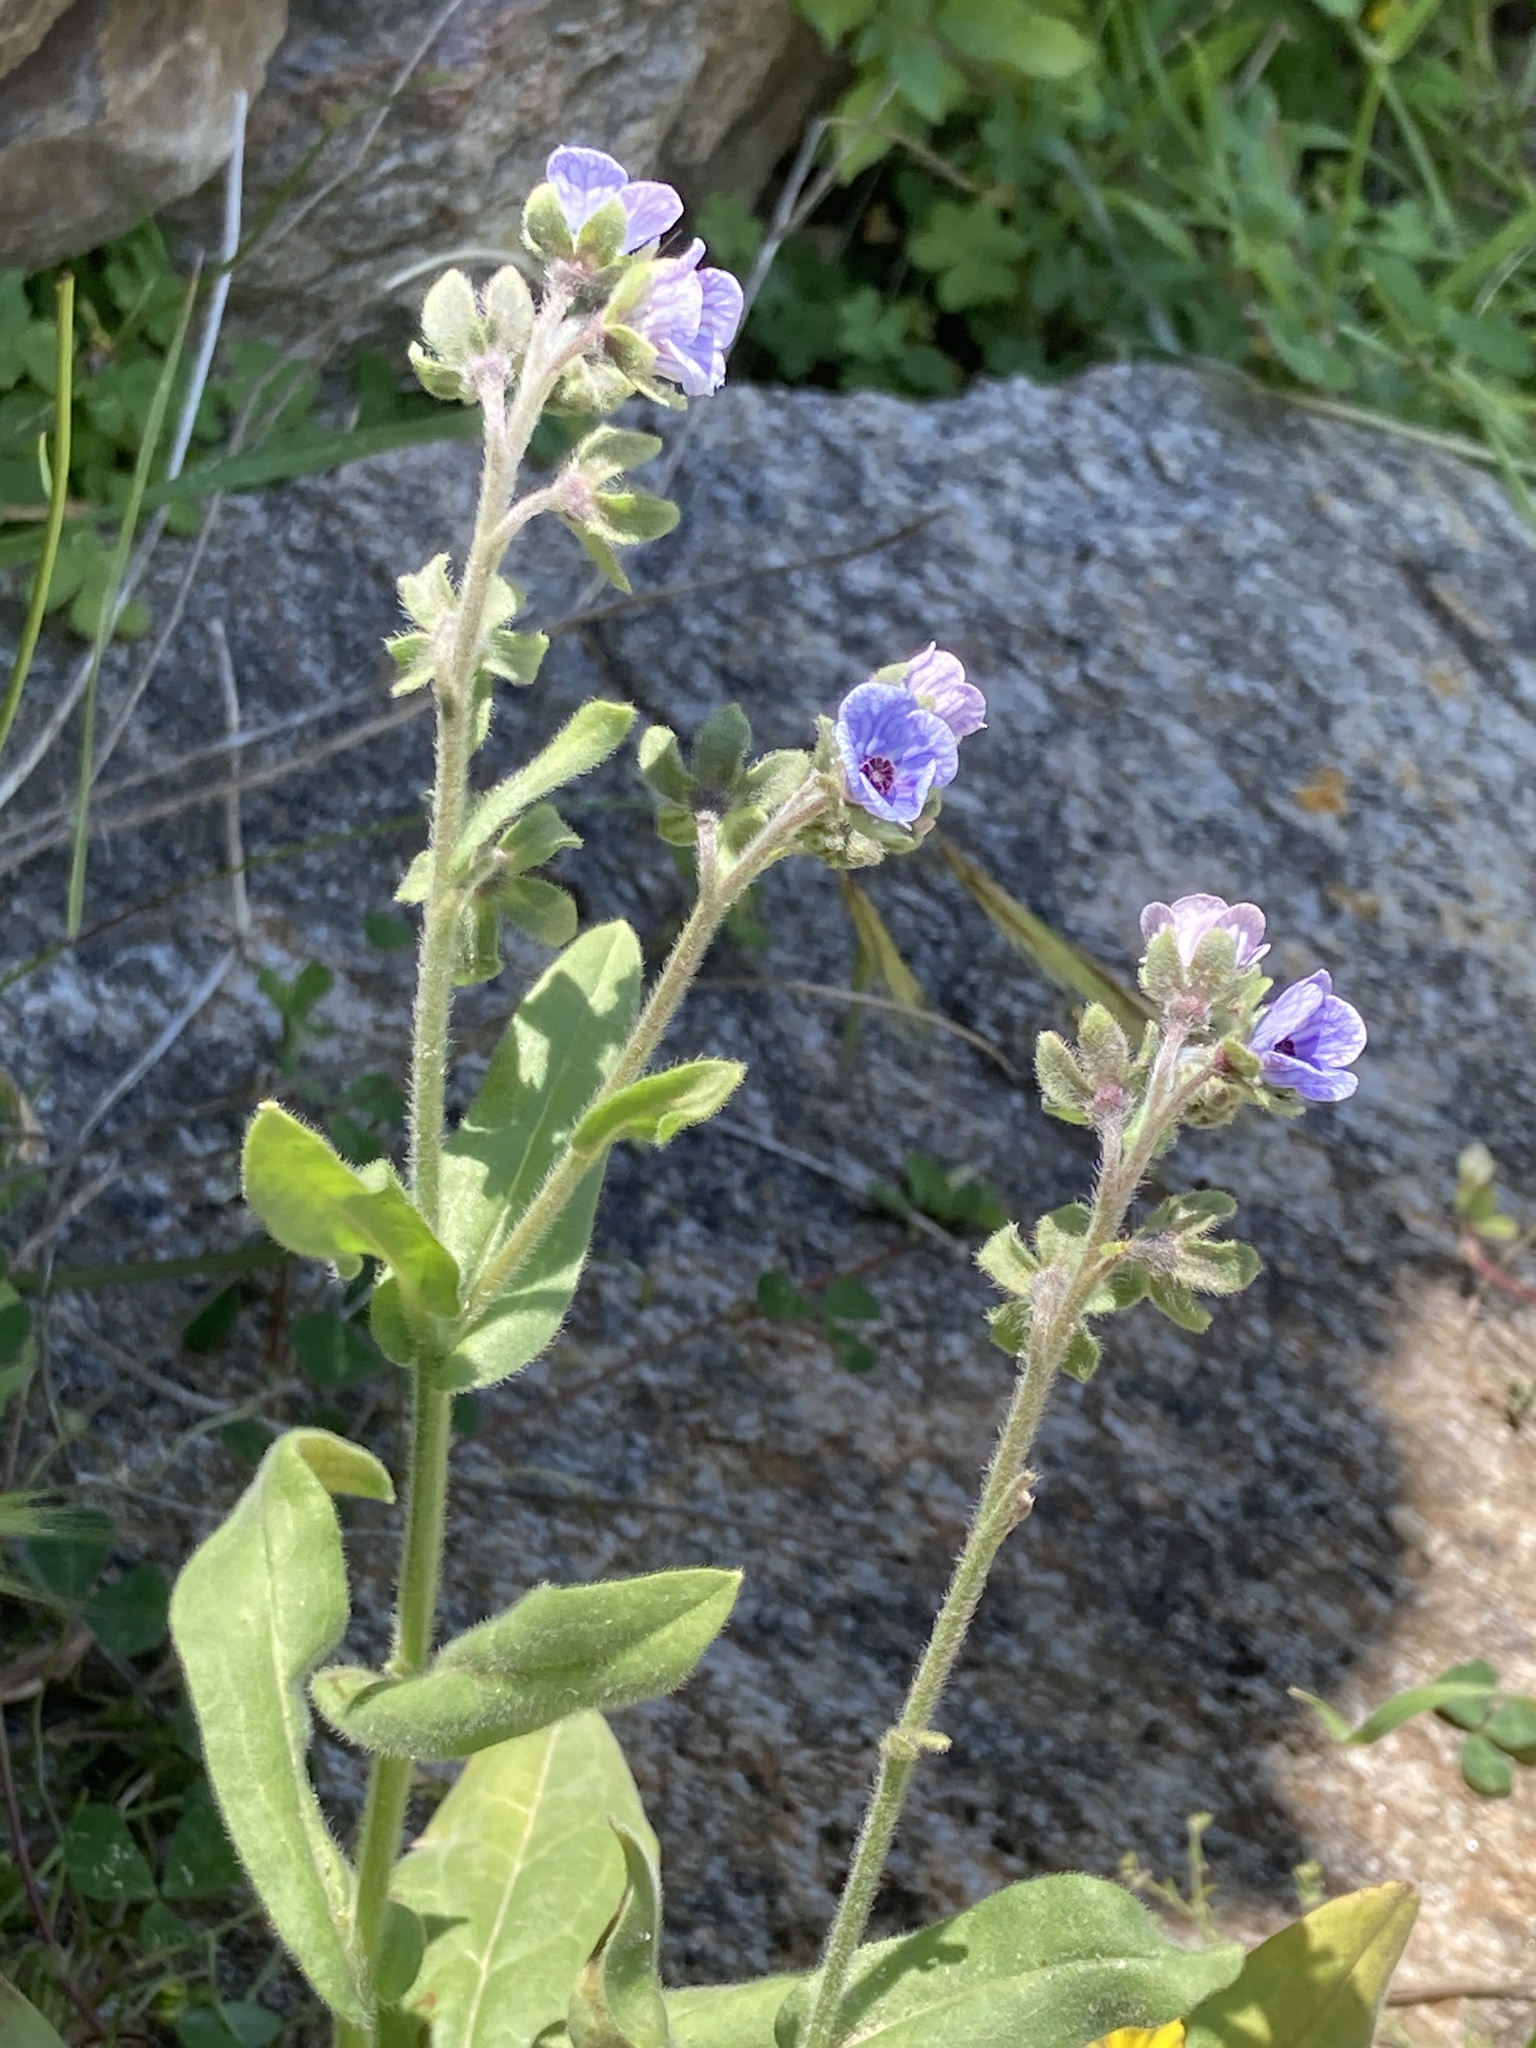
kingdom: Plantae
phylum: Tracheophyta
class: Magnoliopsida
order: Boraginales
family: Boraginaceae
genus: Cynoglossum
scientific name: Cynoglossum creticum
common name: Blue hound's tongue
